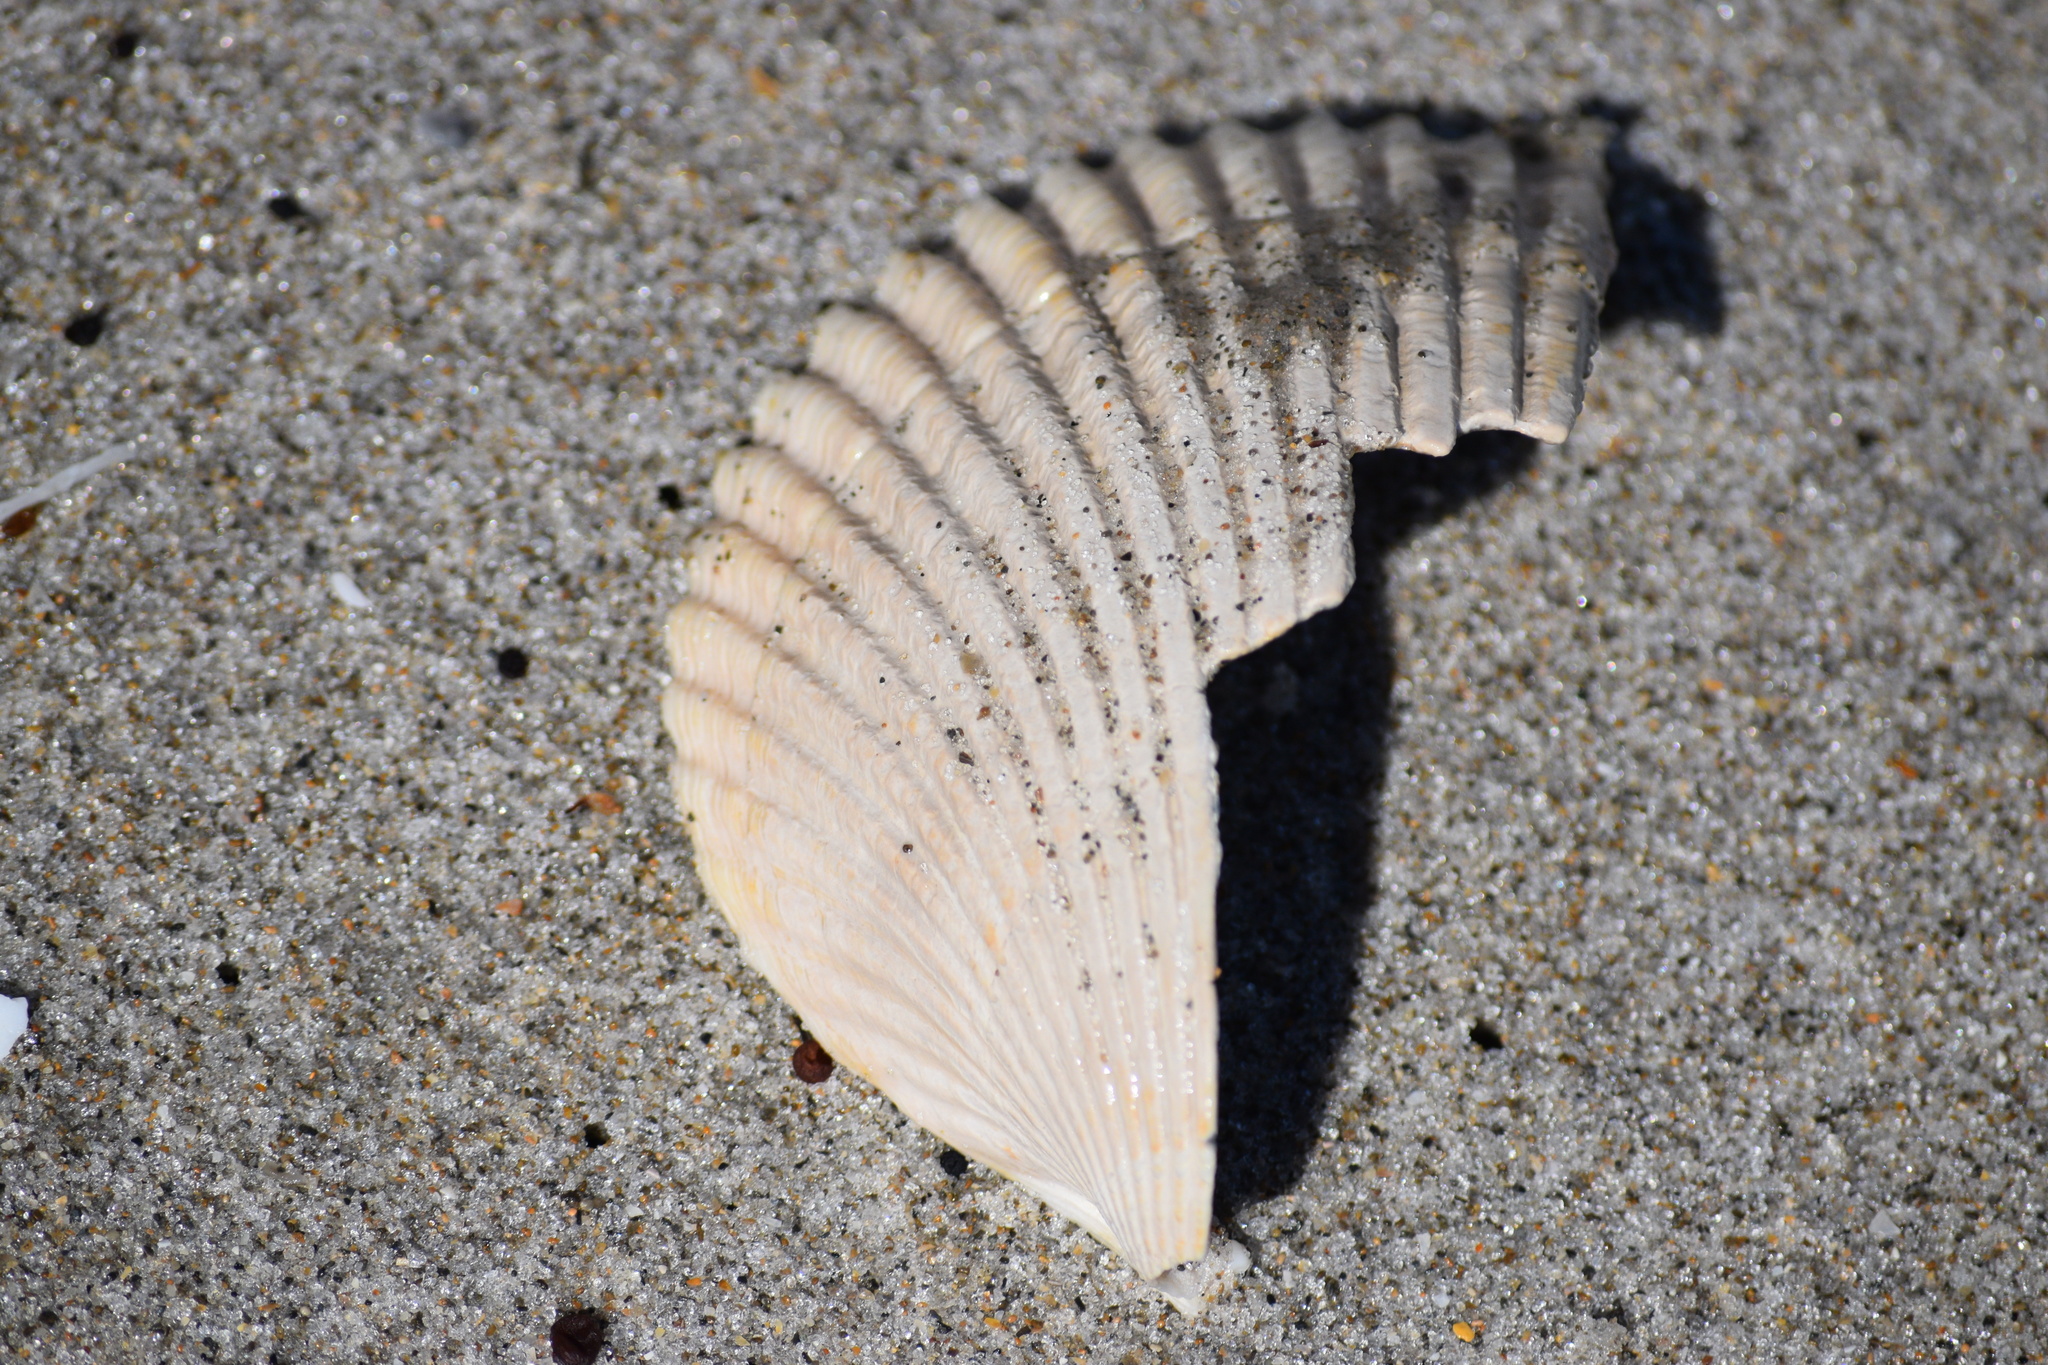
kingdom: Animalia
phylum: Mollusca
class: Bivalvia
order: Cardiida
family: Cardiidae
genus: Dinocardium
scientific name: Dinocardium robustum
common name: Atlantic giant cockle
